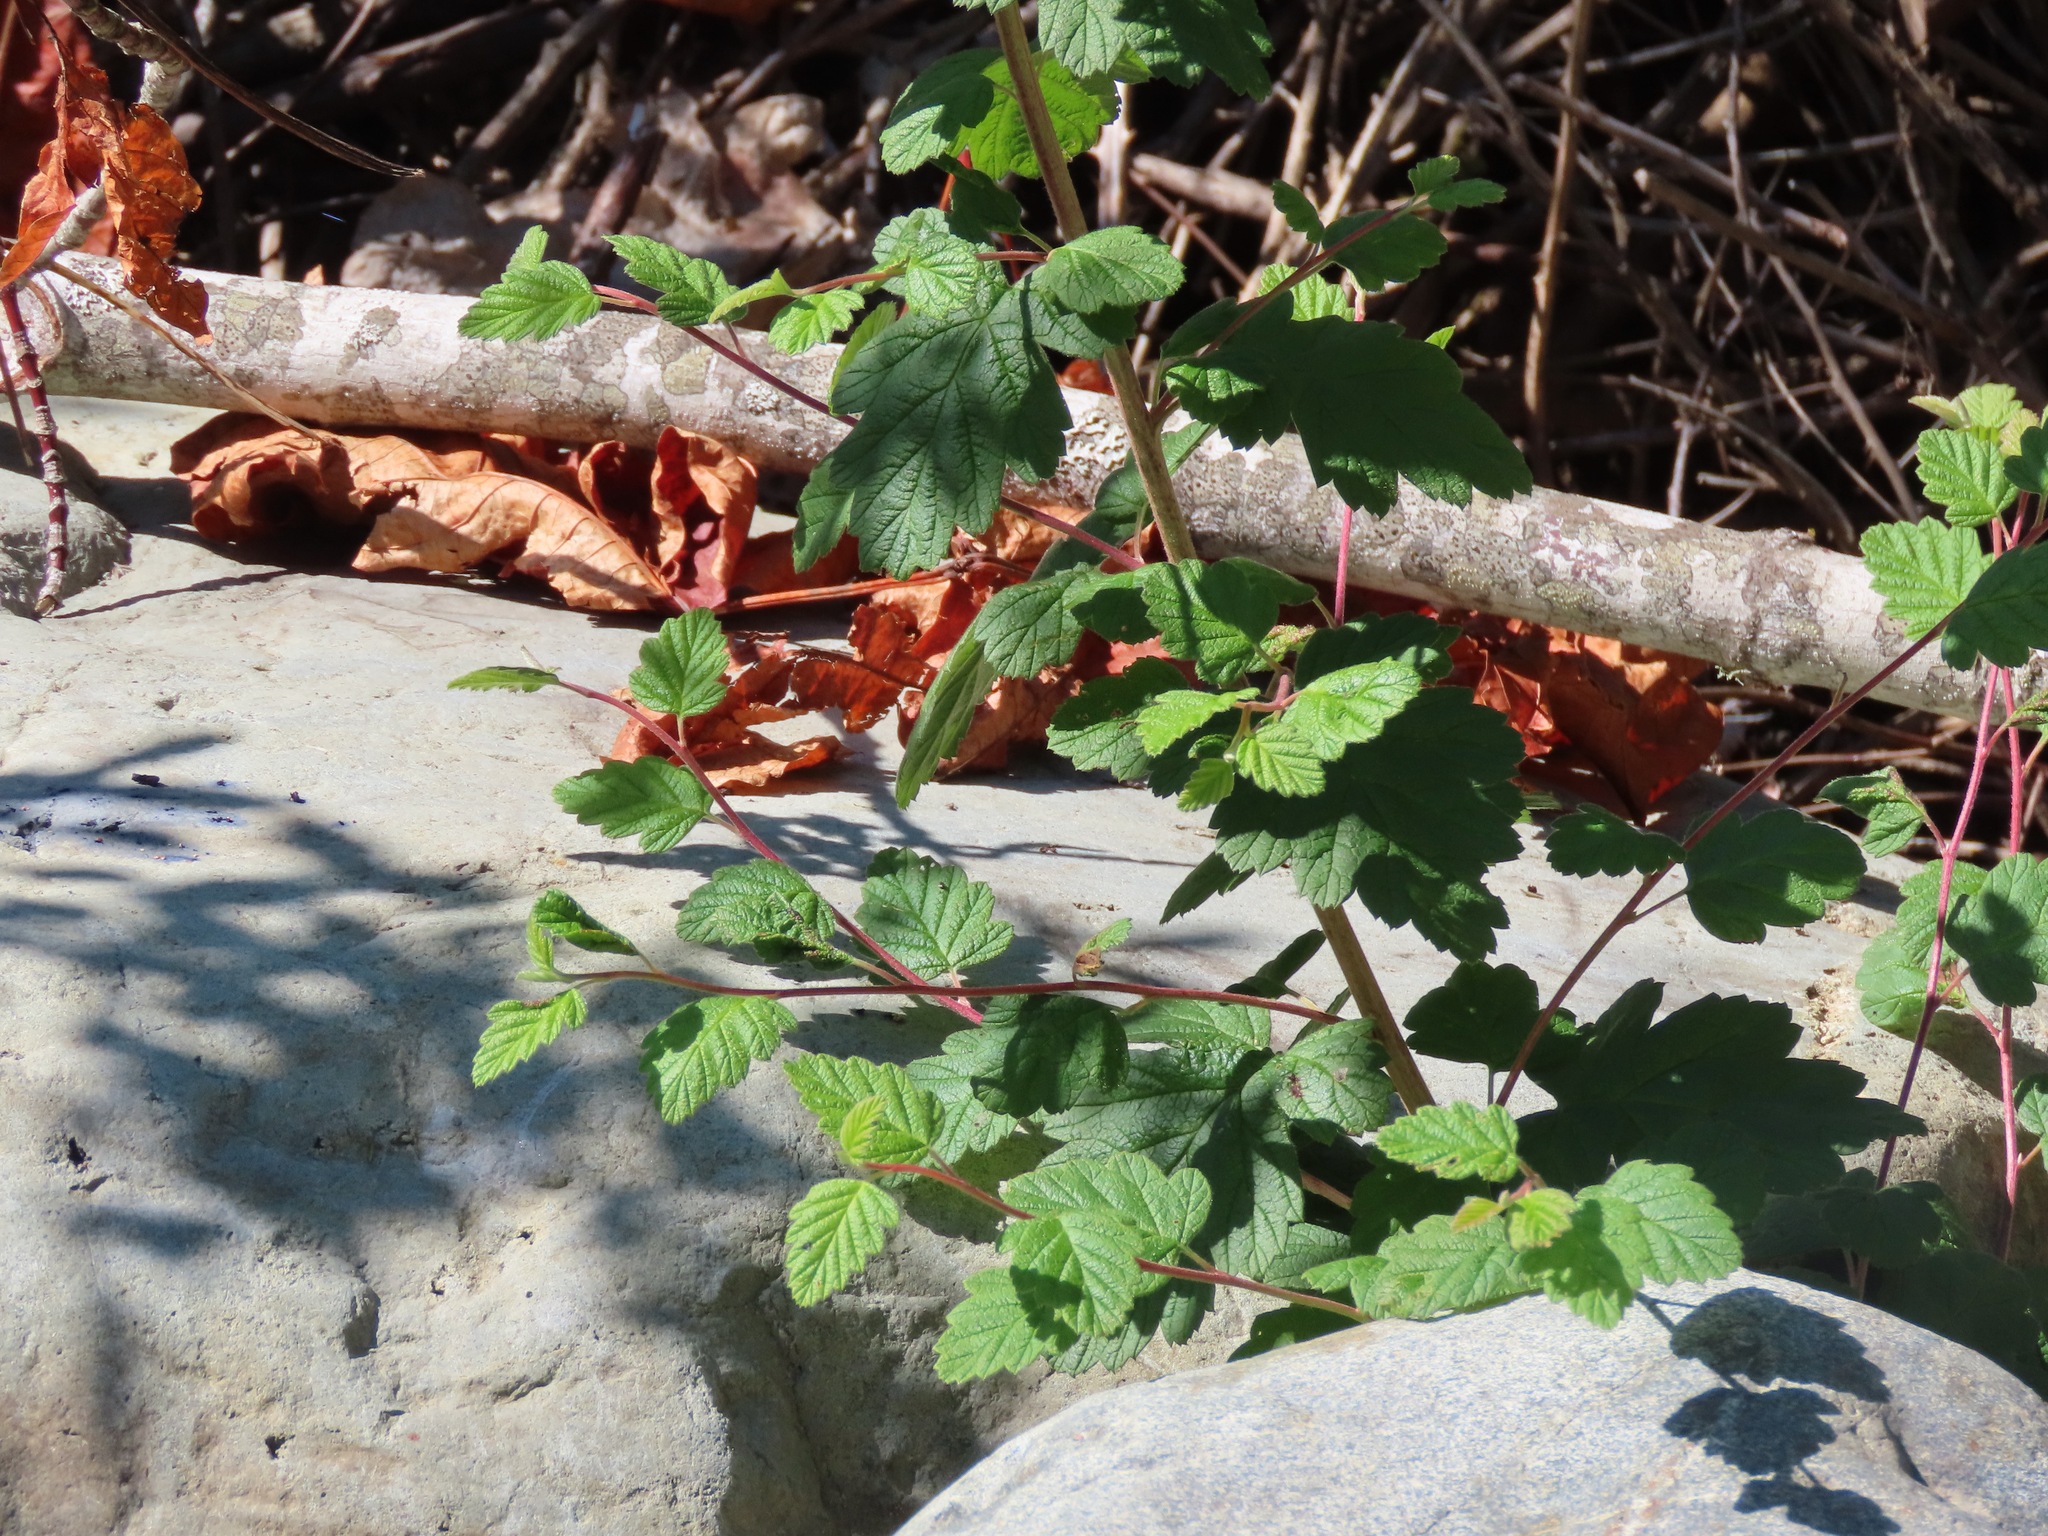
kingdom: Plantae
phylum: Tracheophyta
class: Magnoliopsida
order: Rosales
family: Rosaceae
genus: Holodiscus
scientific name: Holodiscus discolor
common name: Oceanspray
